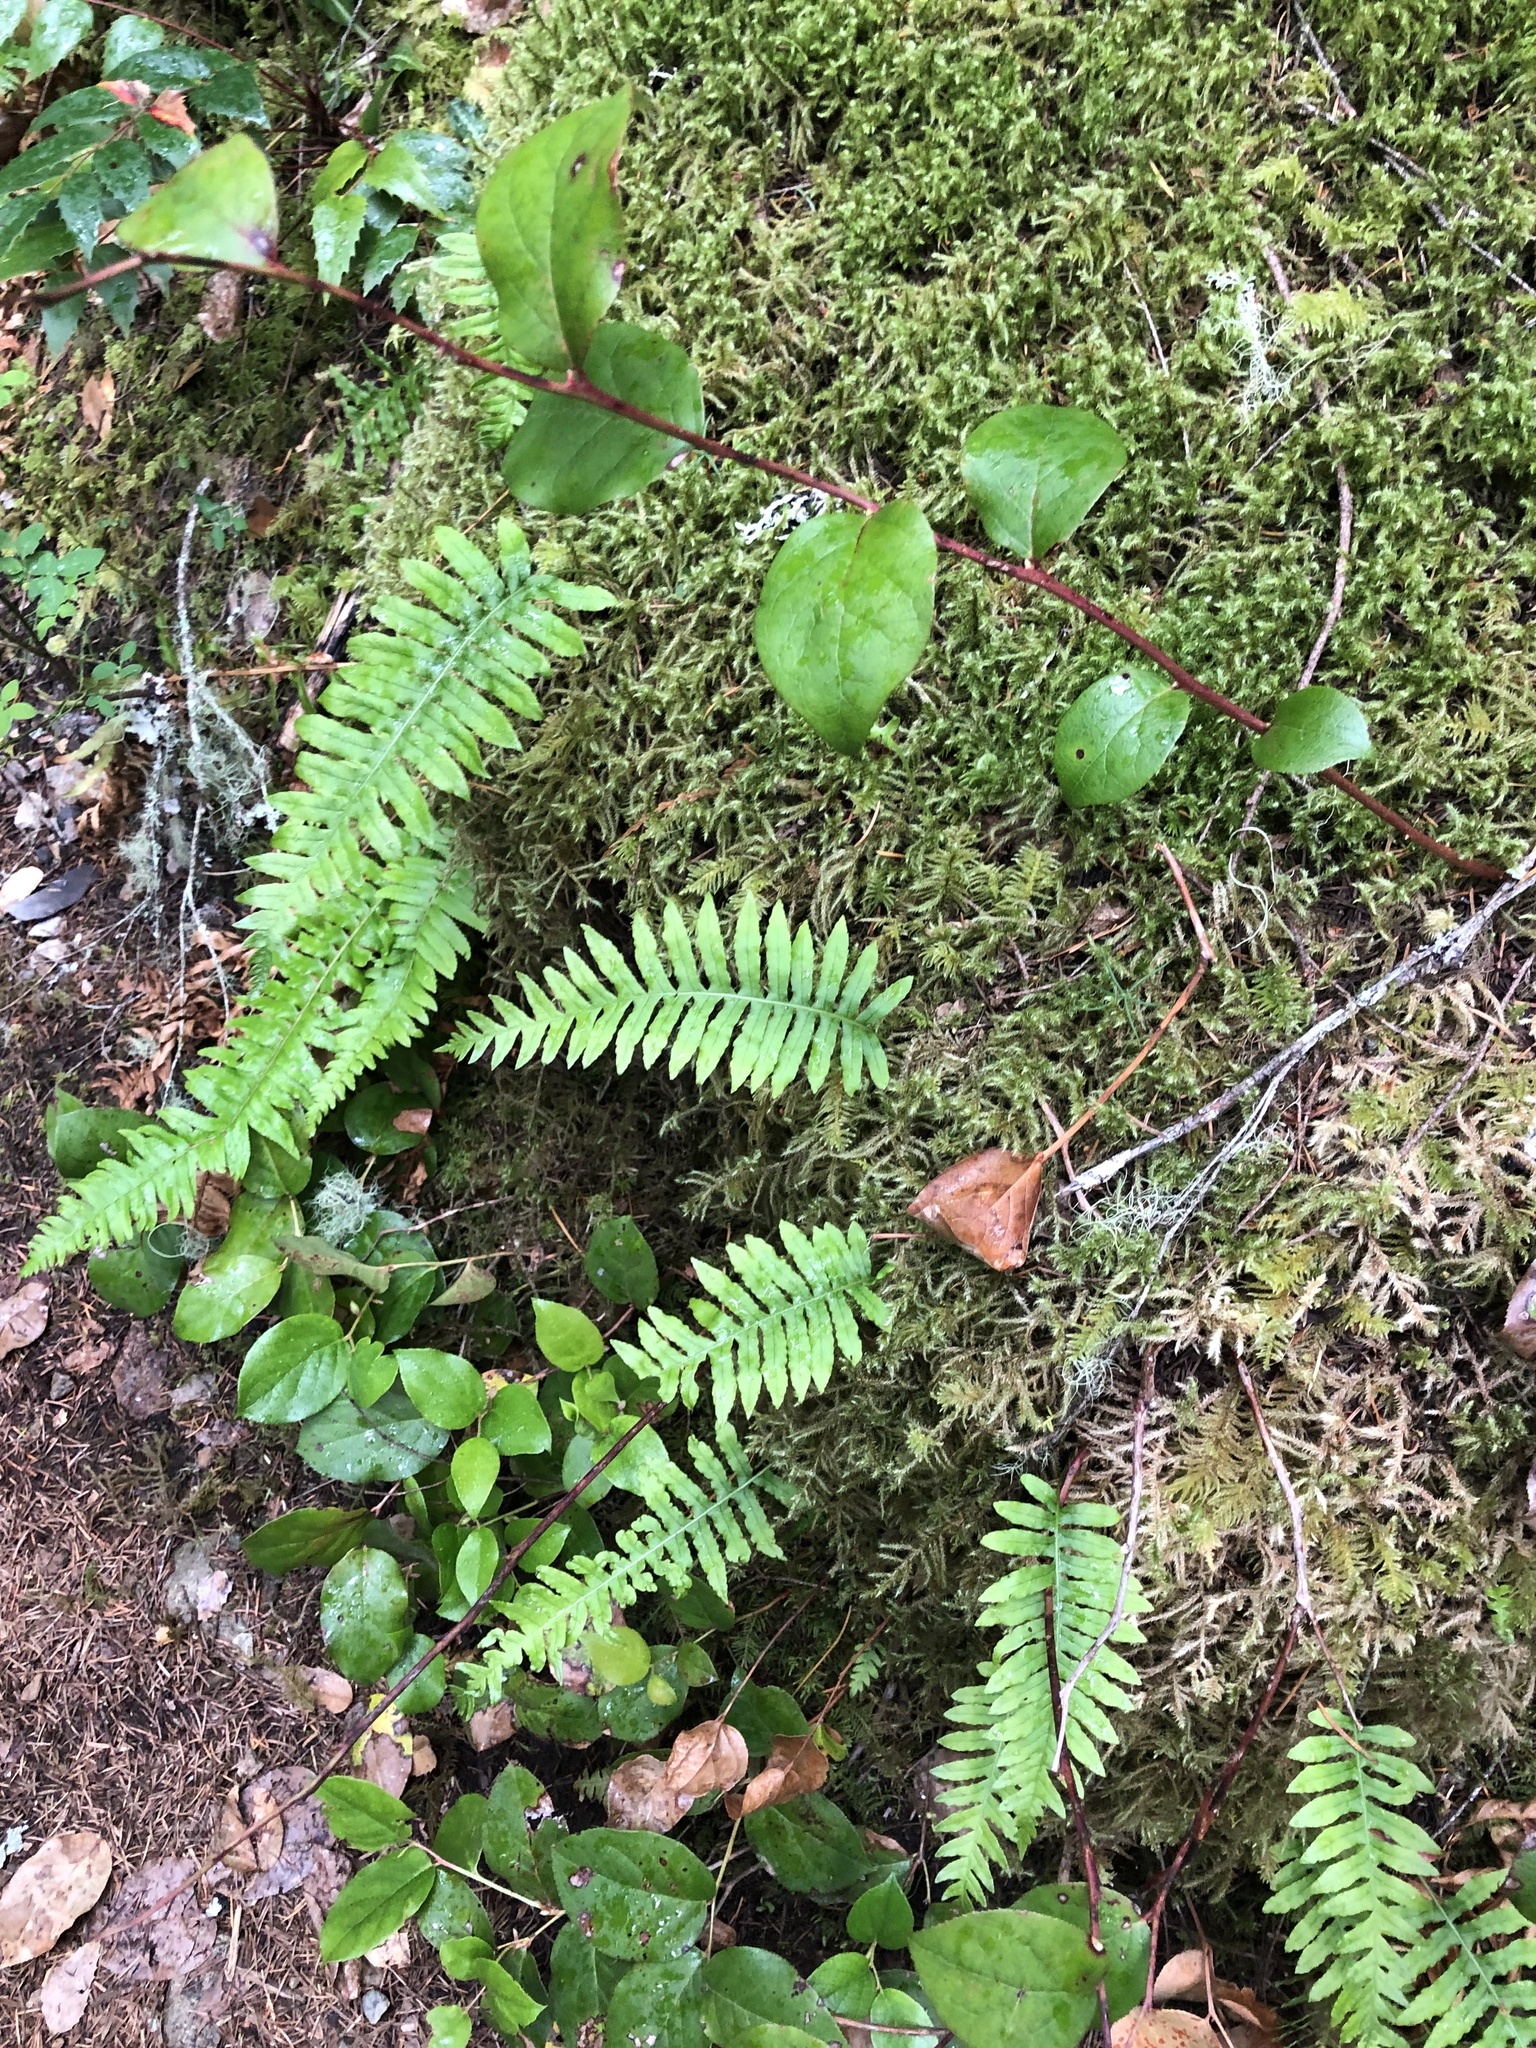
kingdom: Plantae
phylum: Tracheophyta
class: Polypodiopsida
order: Polypodiales
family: Polypodiaceae
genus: Polypodium
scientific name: Polypodium glycyrrhiza
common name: Licorice fern
